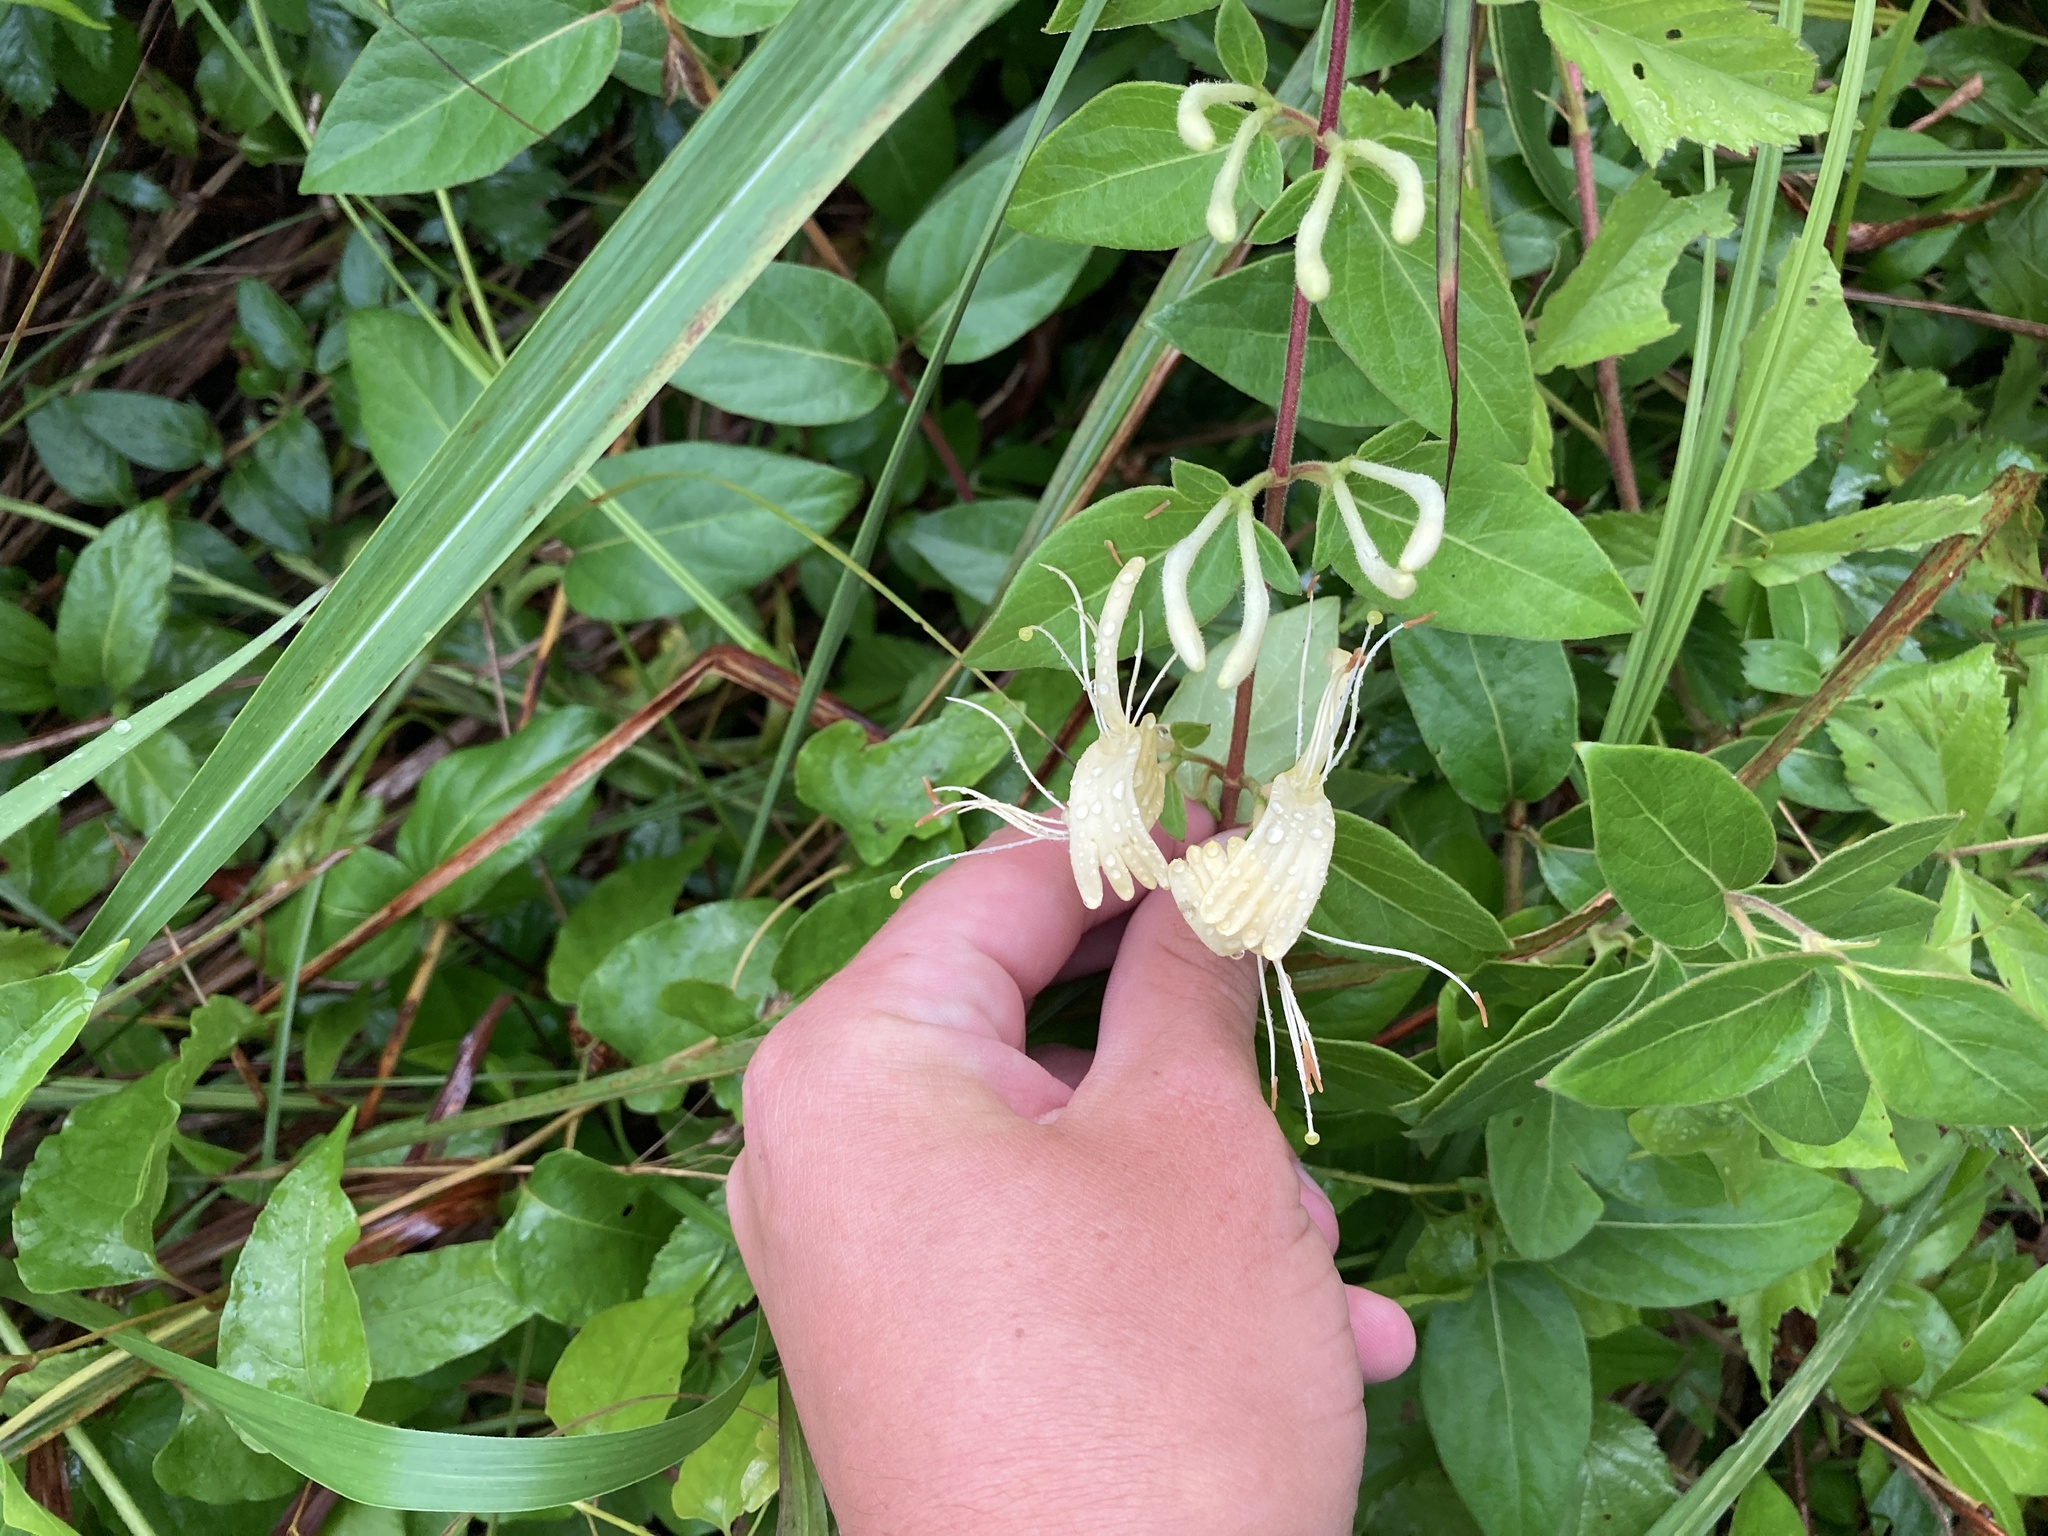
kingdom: Plantae
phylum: Tracheophyta
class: Magnoliopsida
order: Dipsacales
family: Caprifoliaceae
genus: Lonicera
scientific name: Lonicera japonica
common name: Japanese honeysuckle
